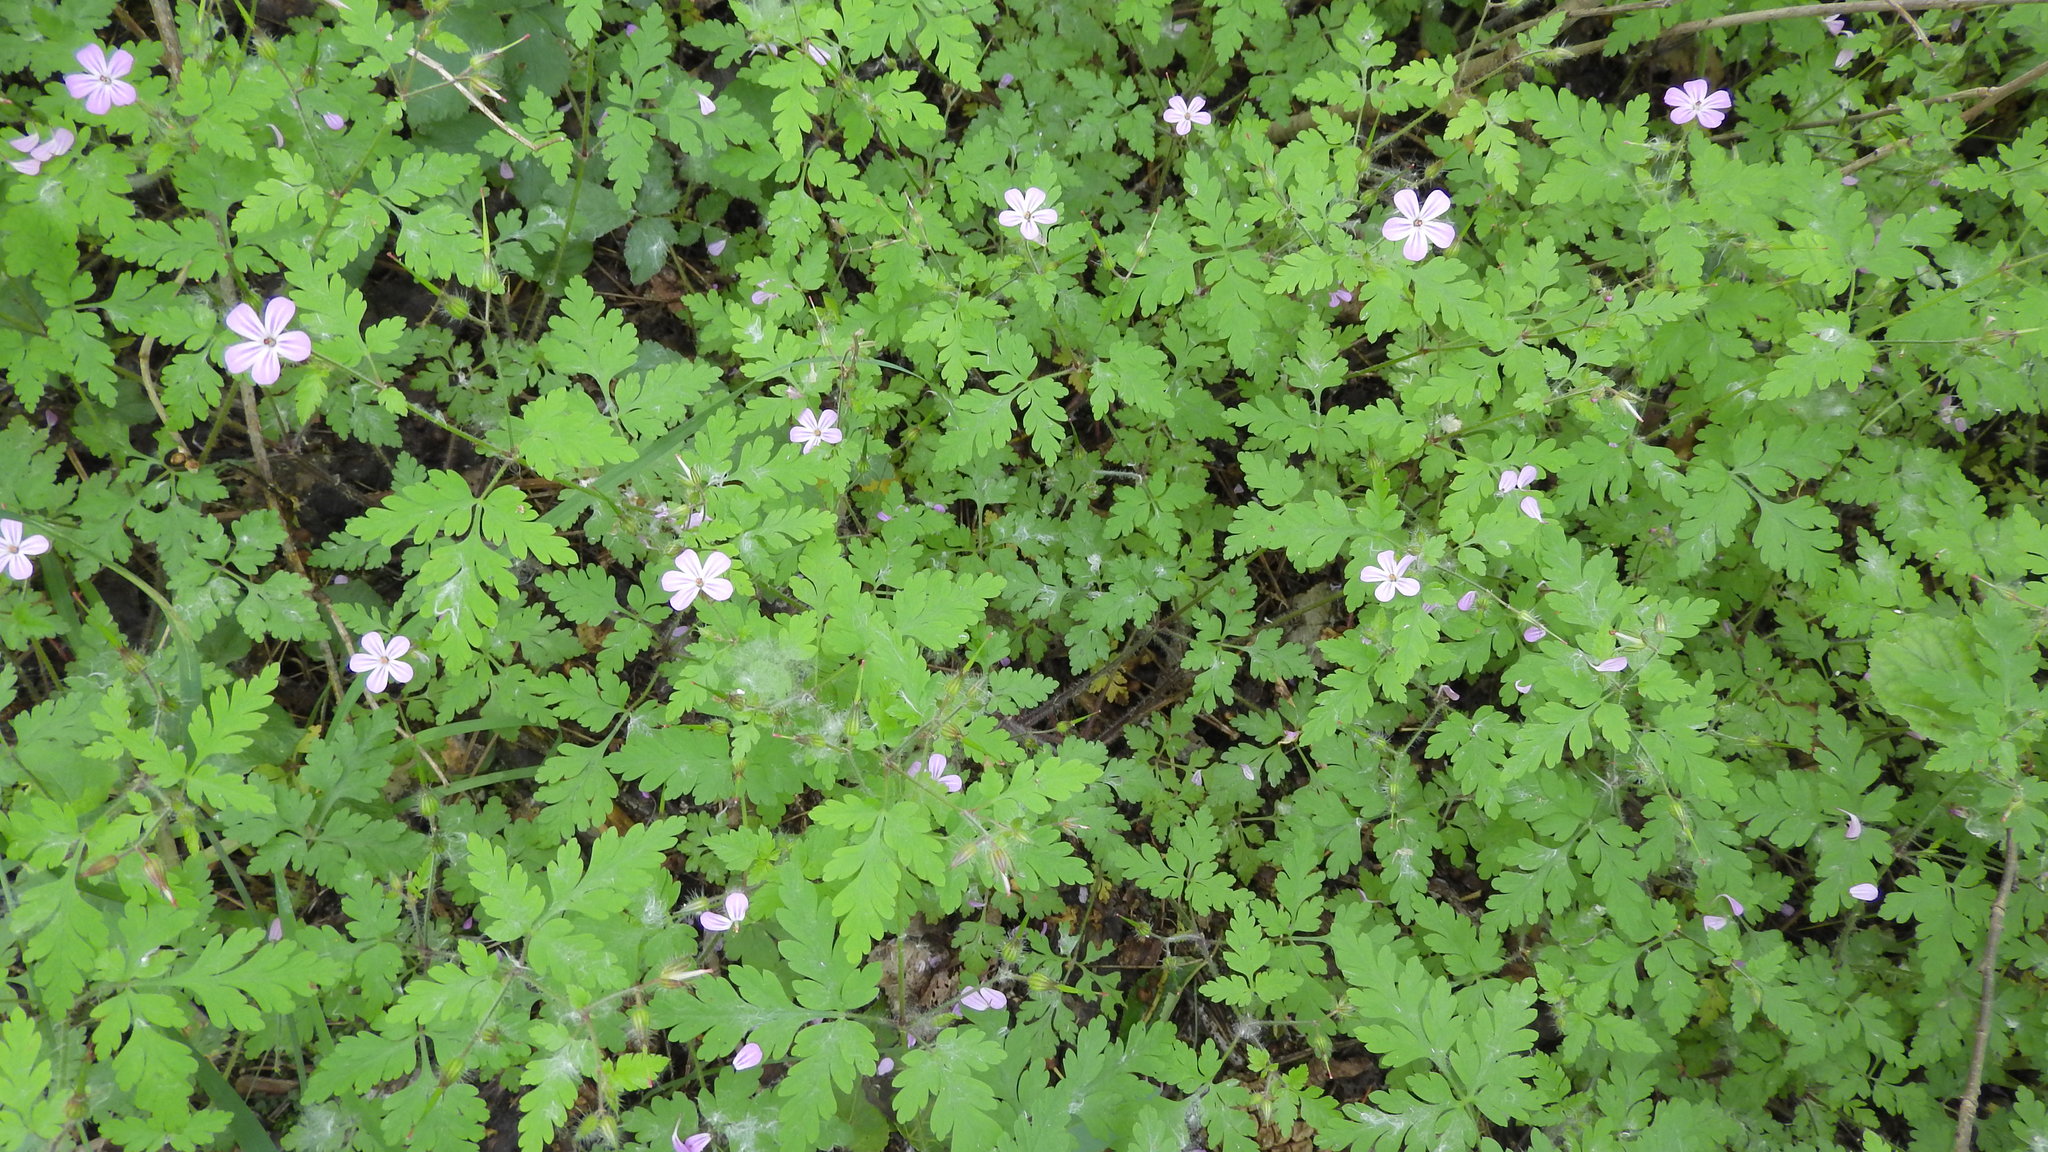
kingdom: Plantae
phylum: Tracheophyta
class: Magnoliopsida
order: Geraniales
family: Geraniaceae
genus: Geranium
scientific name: Geranium robertianum
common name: Herb-robert
